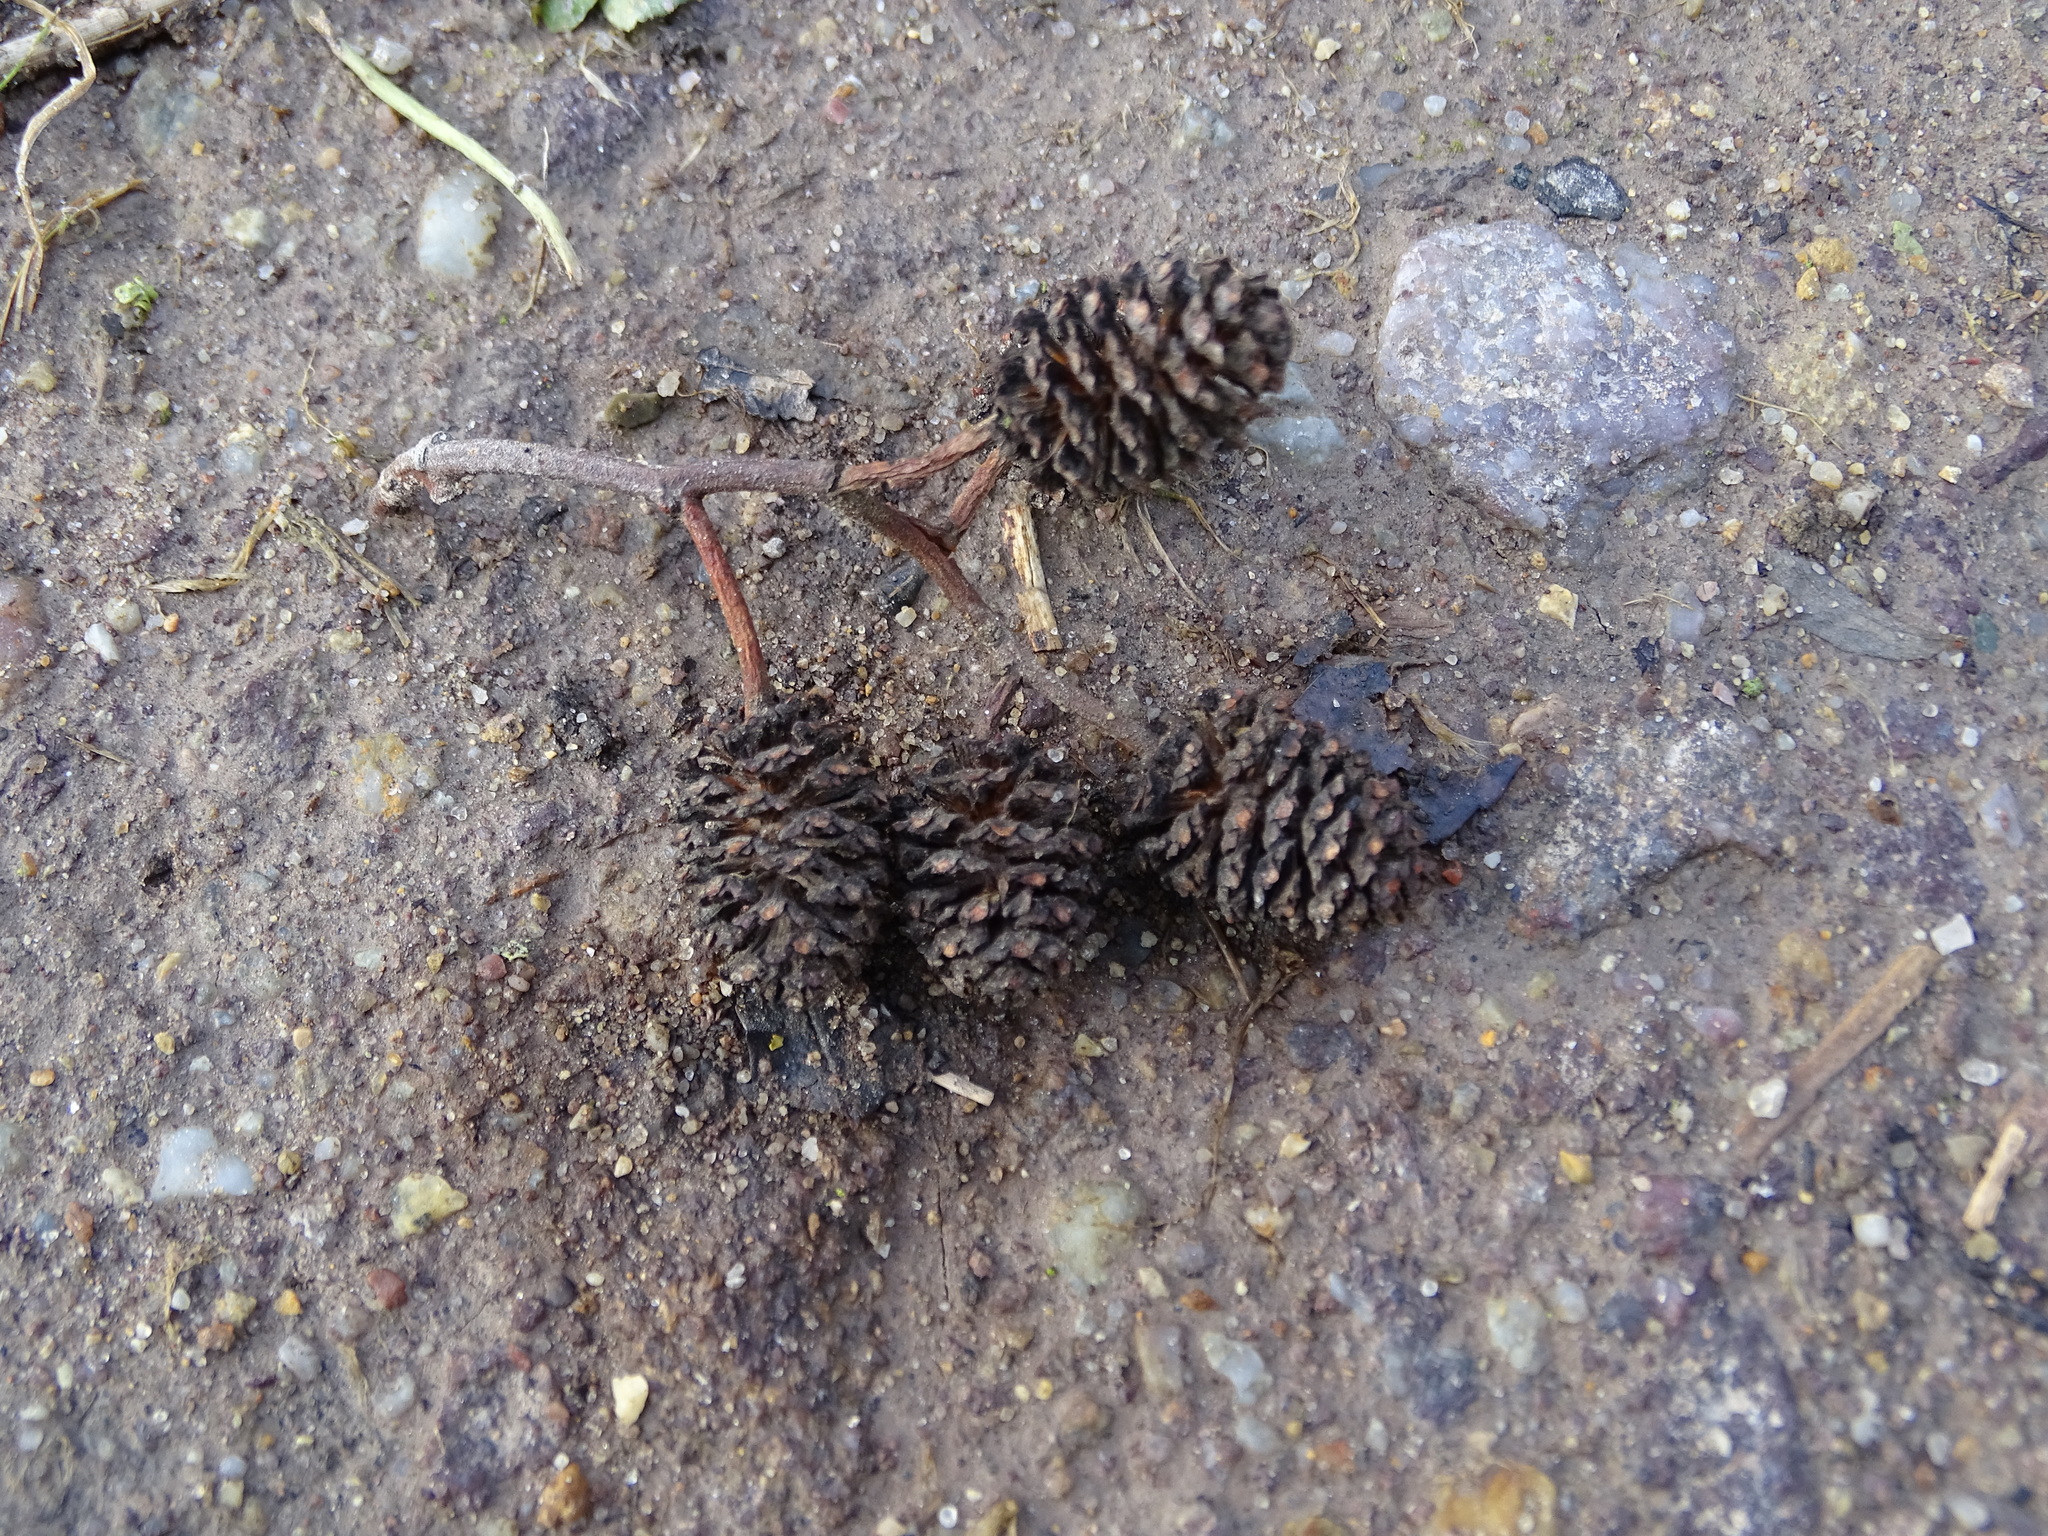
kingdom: Plantae
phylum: Tracheophyta
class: Magnoliopsida
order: Fagales
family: Betulaceae
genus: Alnus
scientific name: Alnus glutinosa
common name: Black alder
